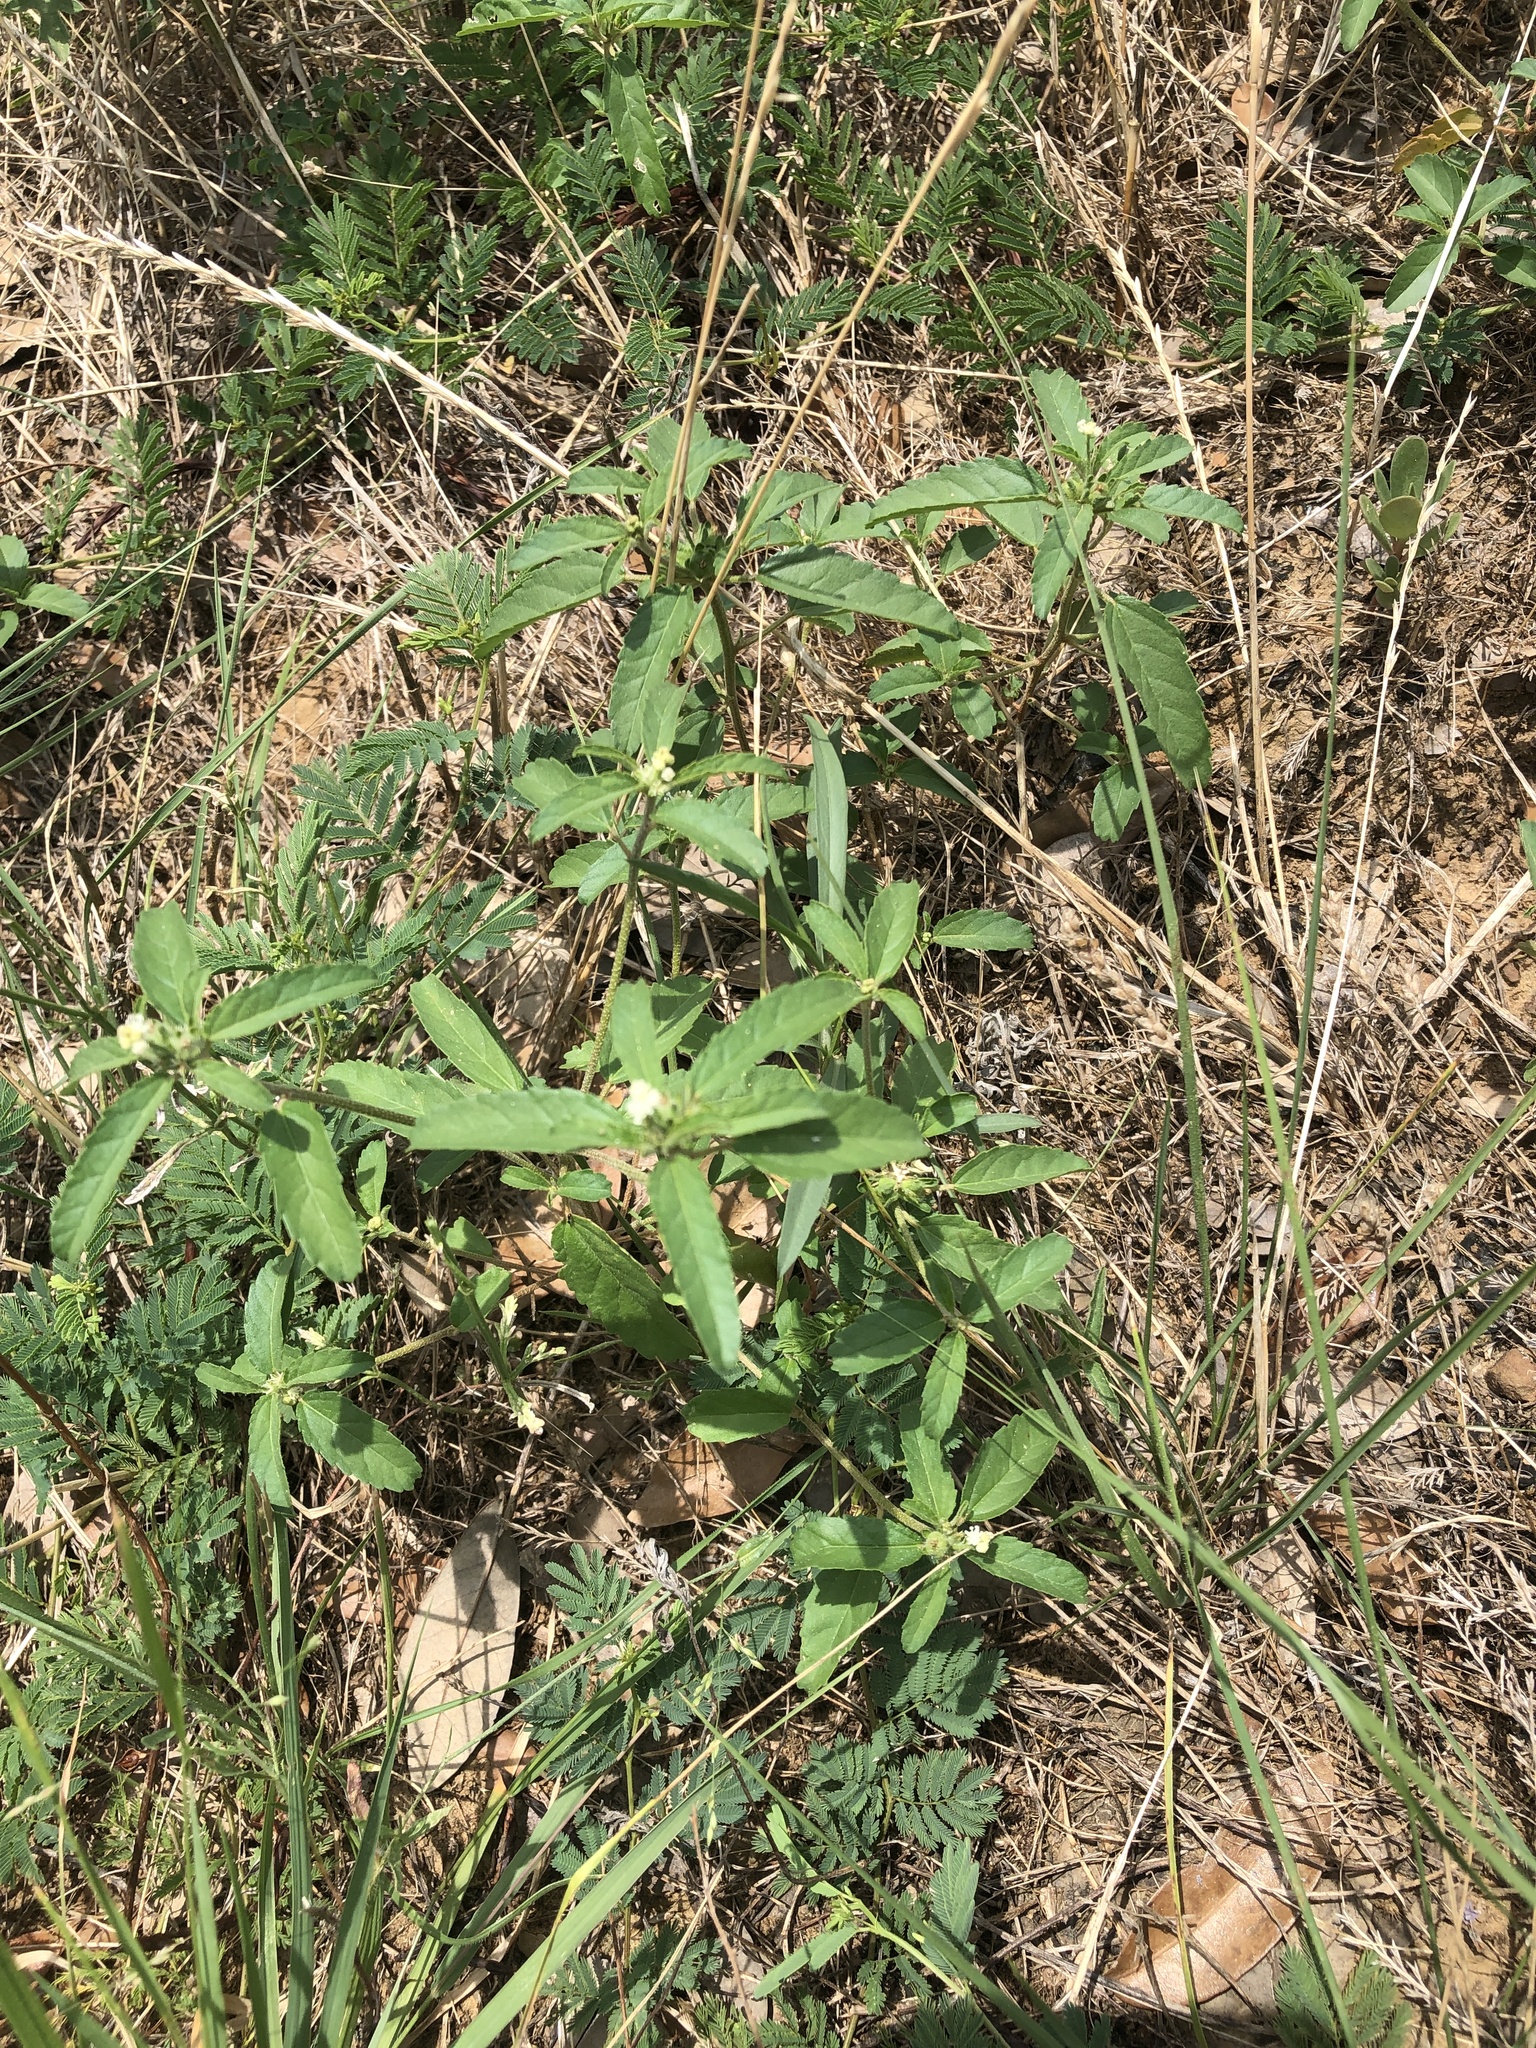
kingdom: Plantae
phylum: Tracheophyta
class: Magnoliopsida
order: Malpighiales
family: Euphorbiaceae
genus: Croton
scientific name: Croton glandulosus
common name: Tropic croton
